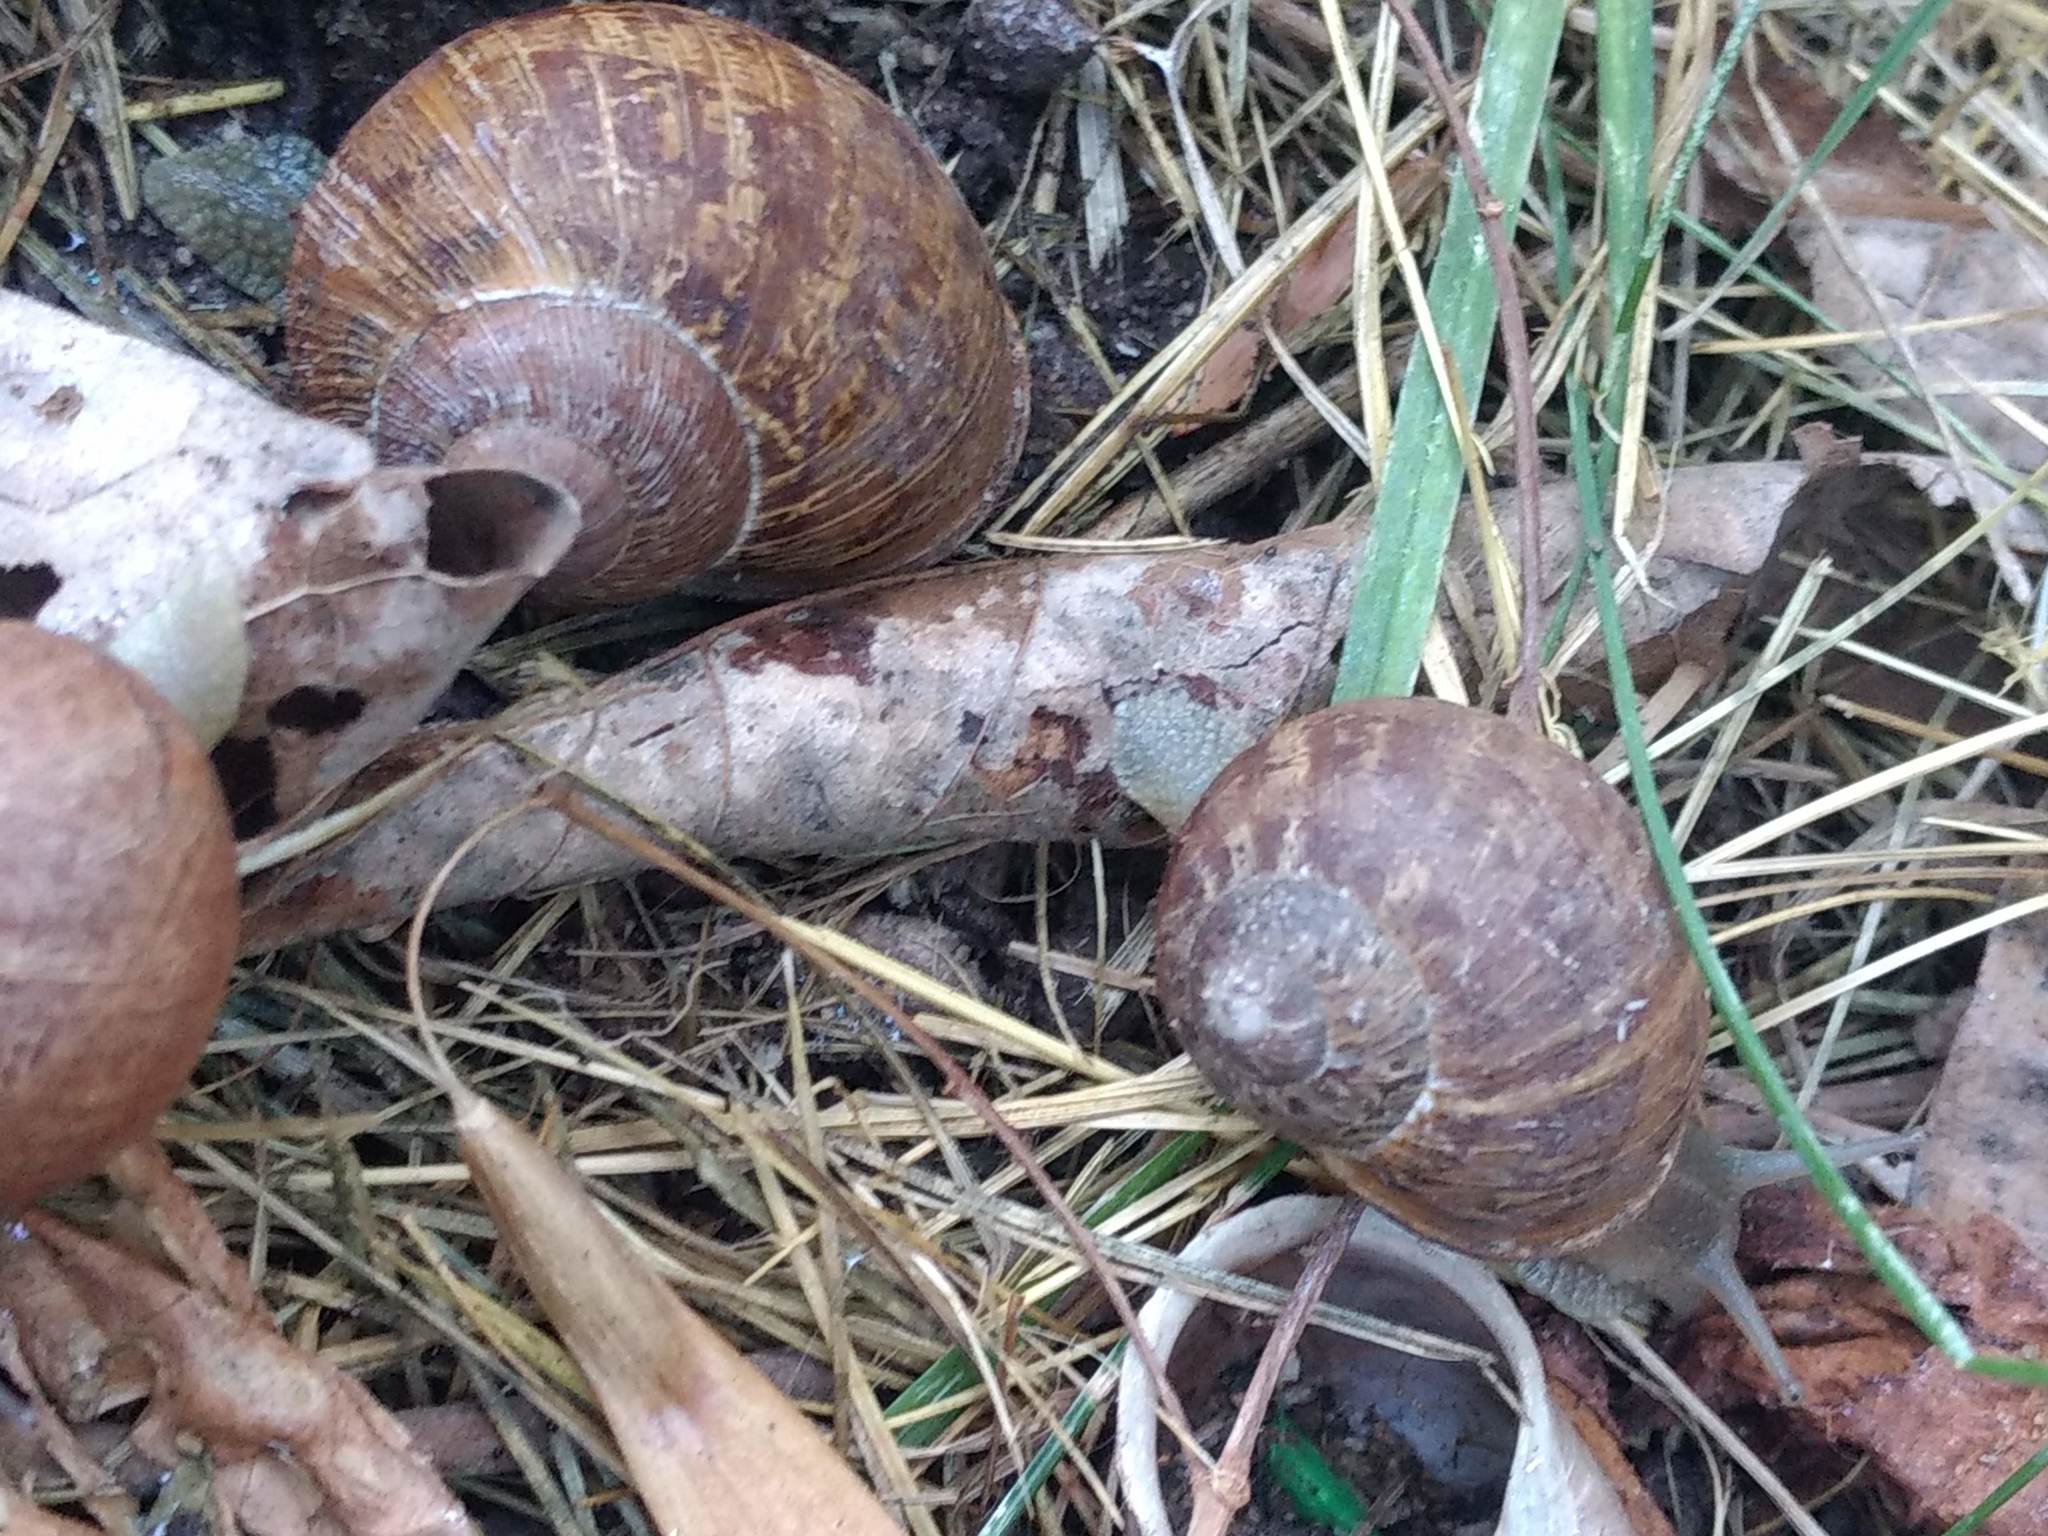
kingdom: Animalia
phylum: Mollusca
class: Gastropoda
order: Stylommatophora
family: Helicidae
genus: Cornu
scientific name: Cornu aspersum
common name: Brown garden snail
